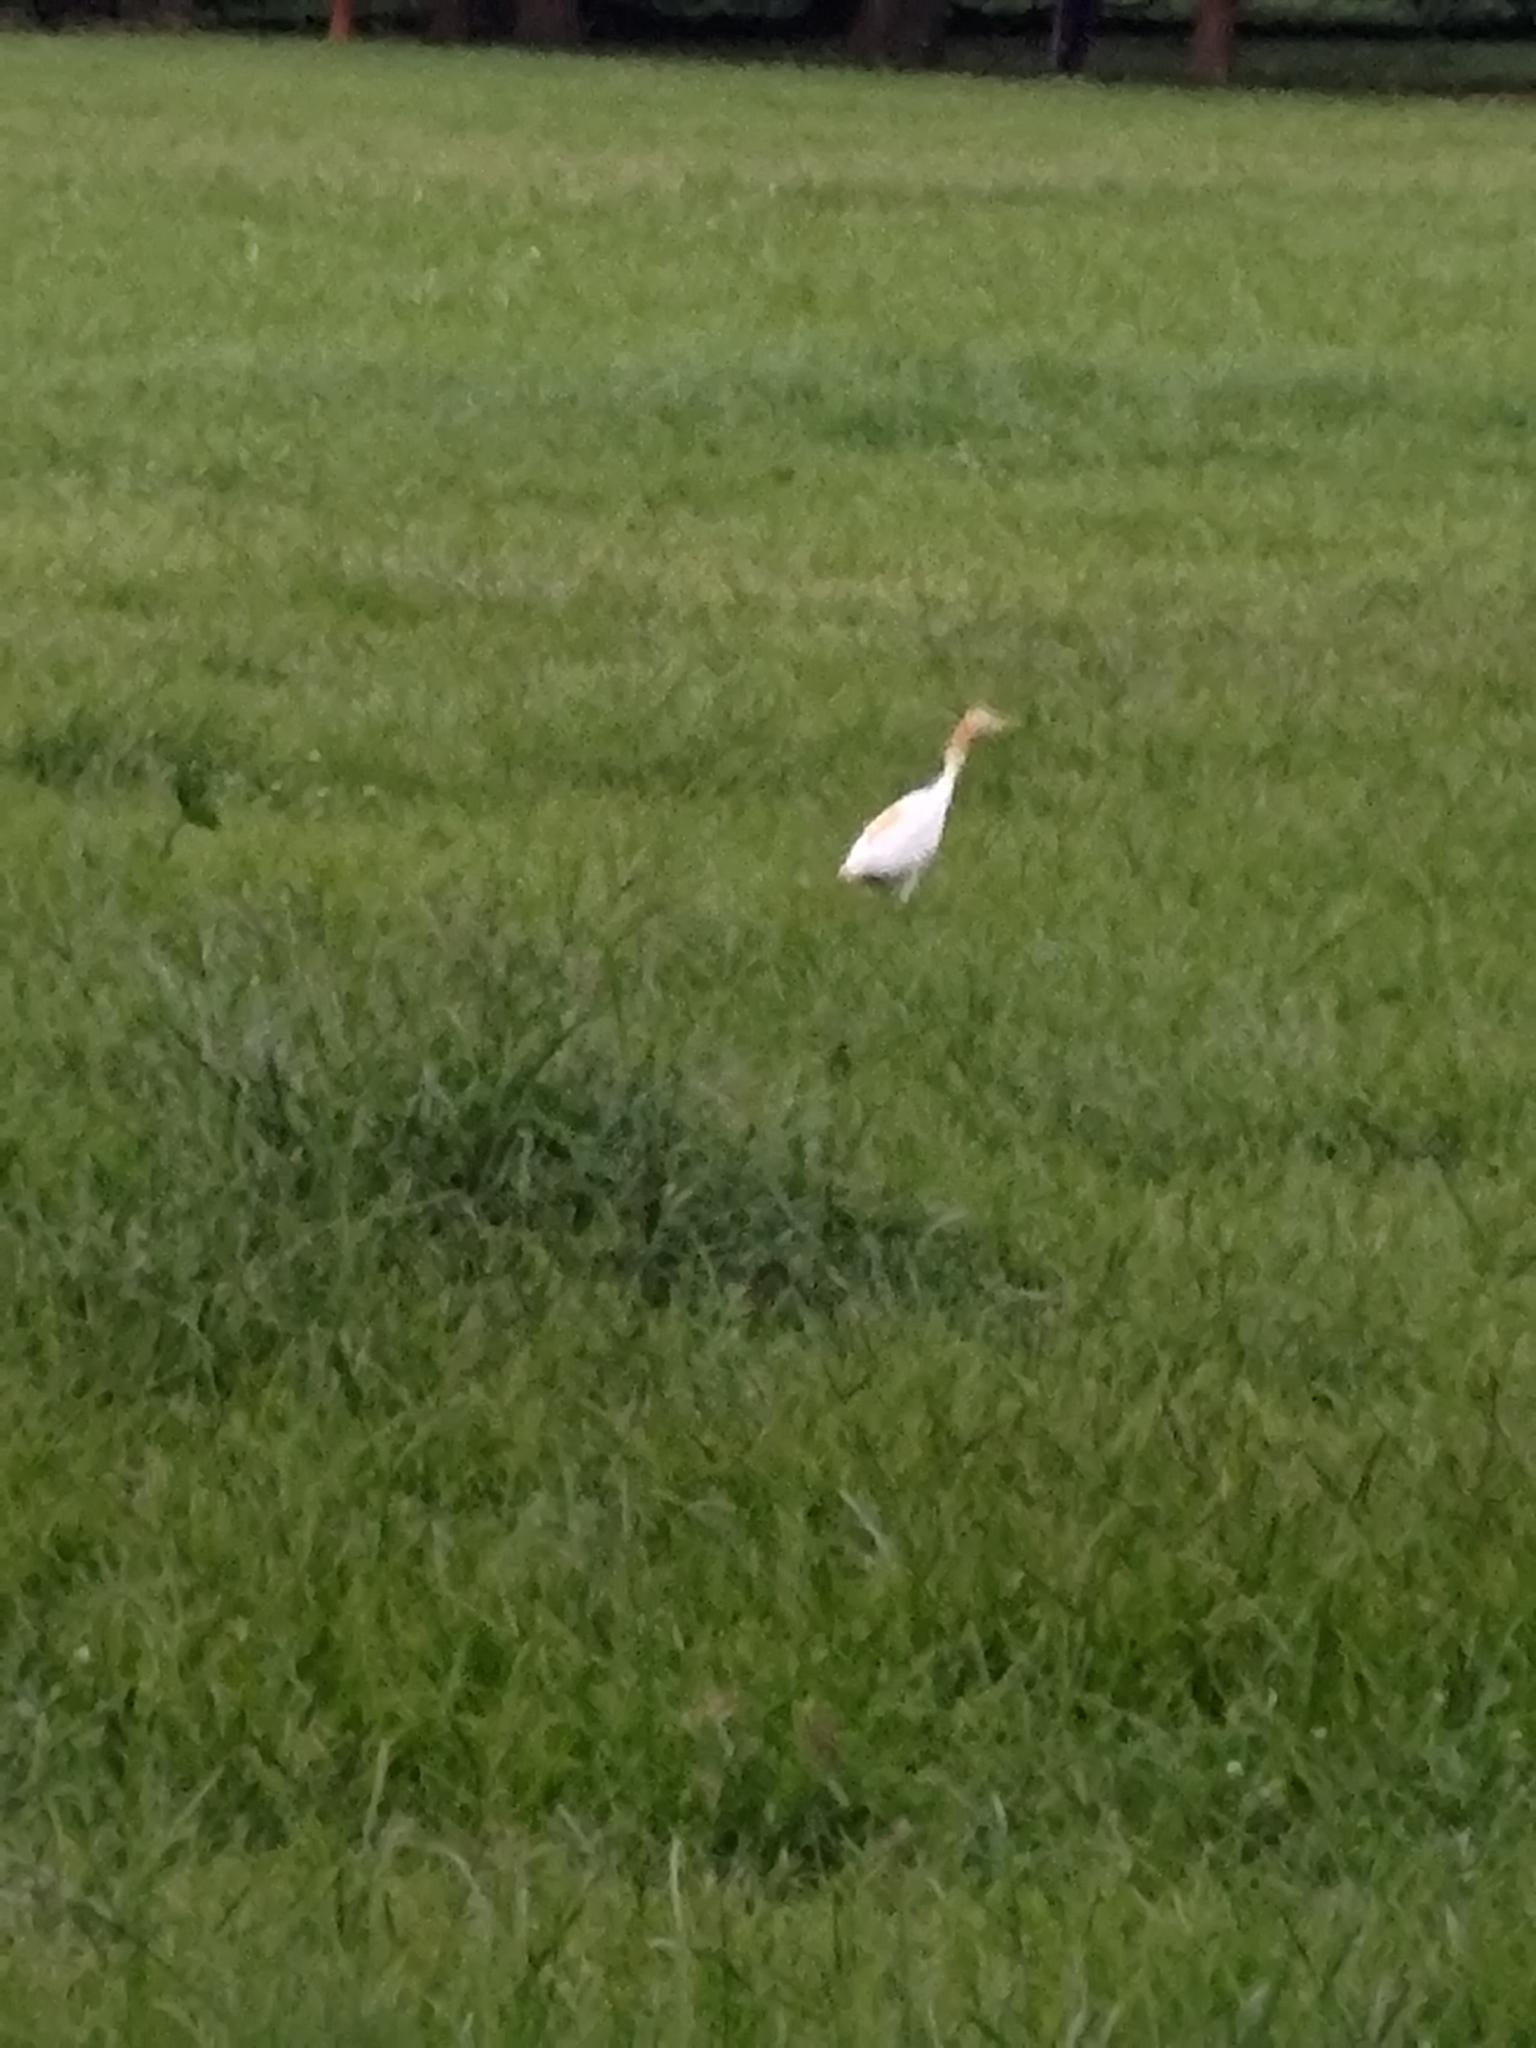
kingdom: Animalia
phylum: Chordata
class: Aves
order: Pelecaniformes
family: Ardeidae
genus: Bubulcus
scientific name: Bubulcus coromandus
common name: Eastern cattle egret
